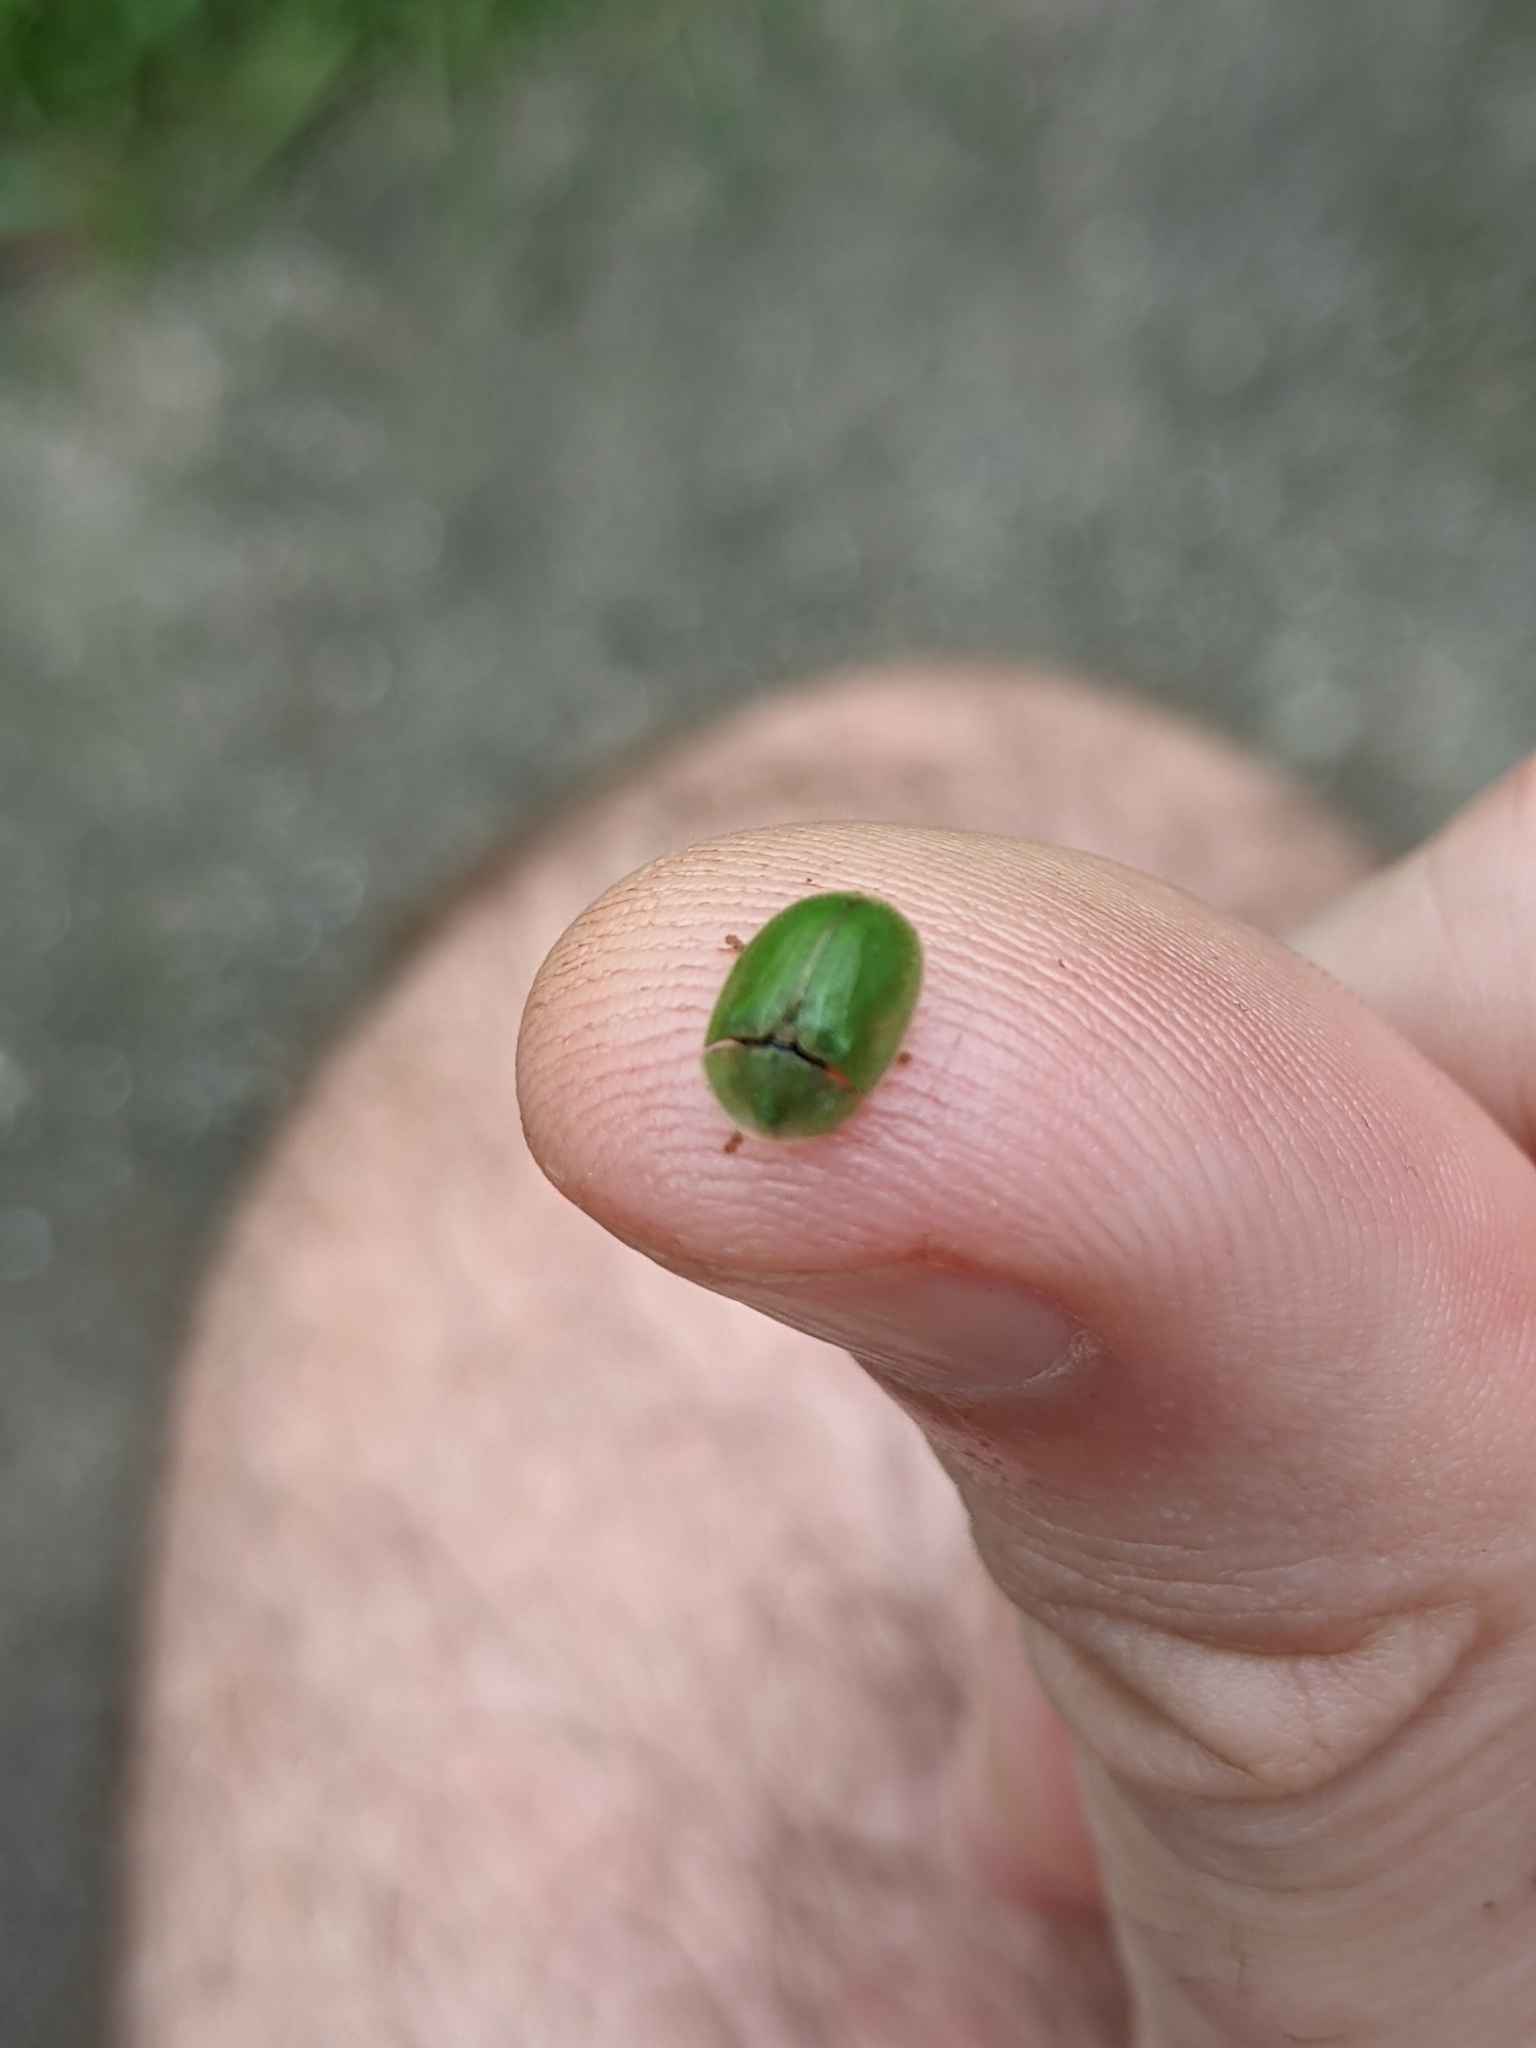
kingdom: Animalia
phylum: Arthropoda
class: Insecta
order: Coleoptera
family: Chrysomelidae
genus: Cassida
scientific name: Cassida rubiginosa
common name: Thistle tortoise beetle
